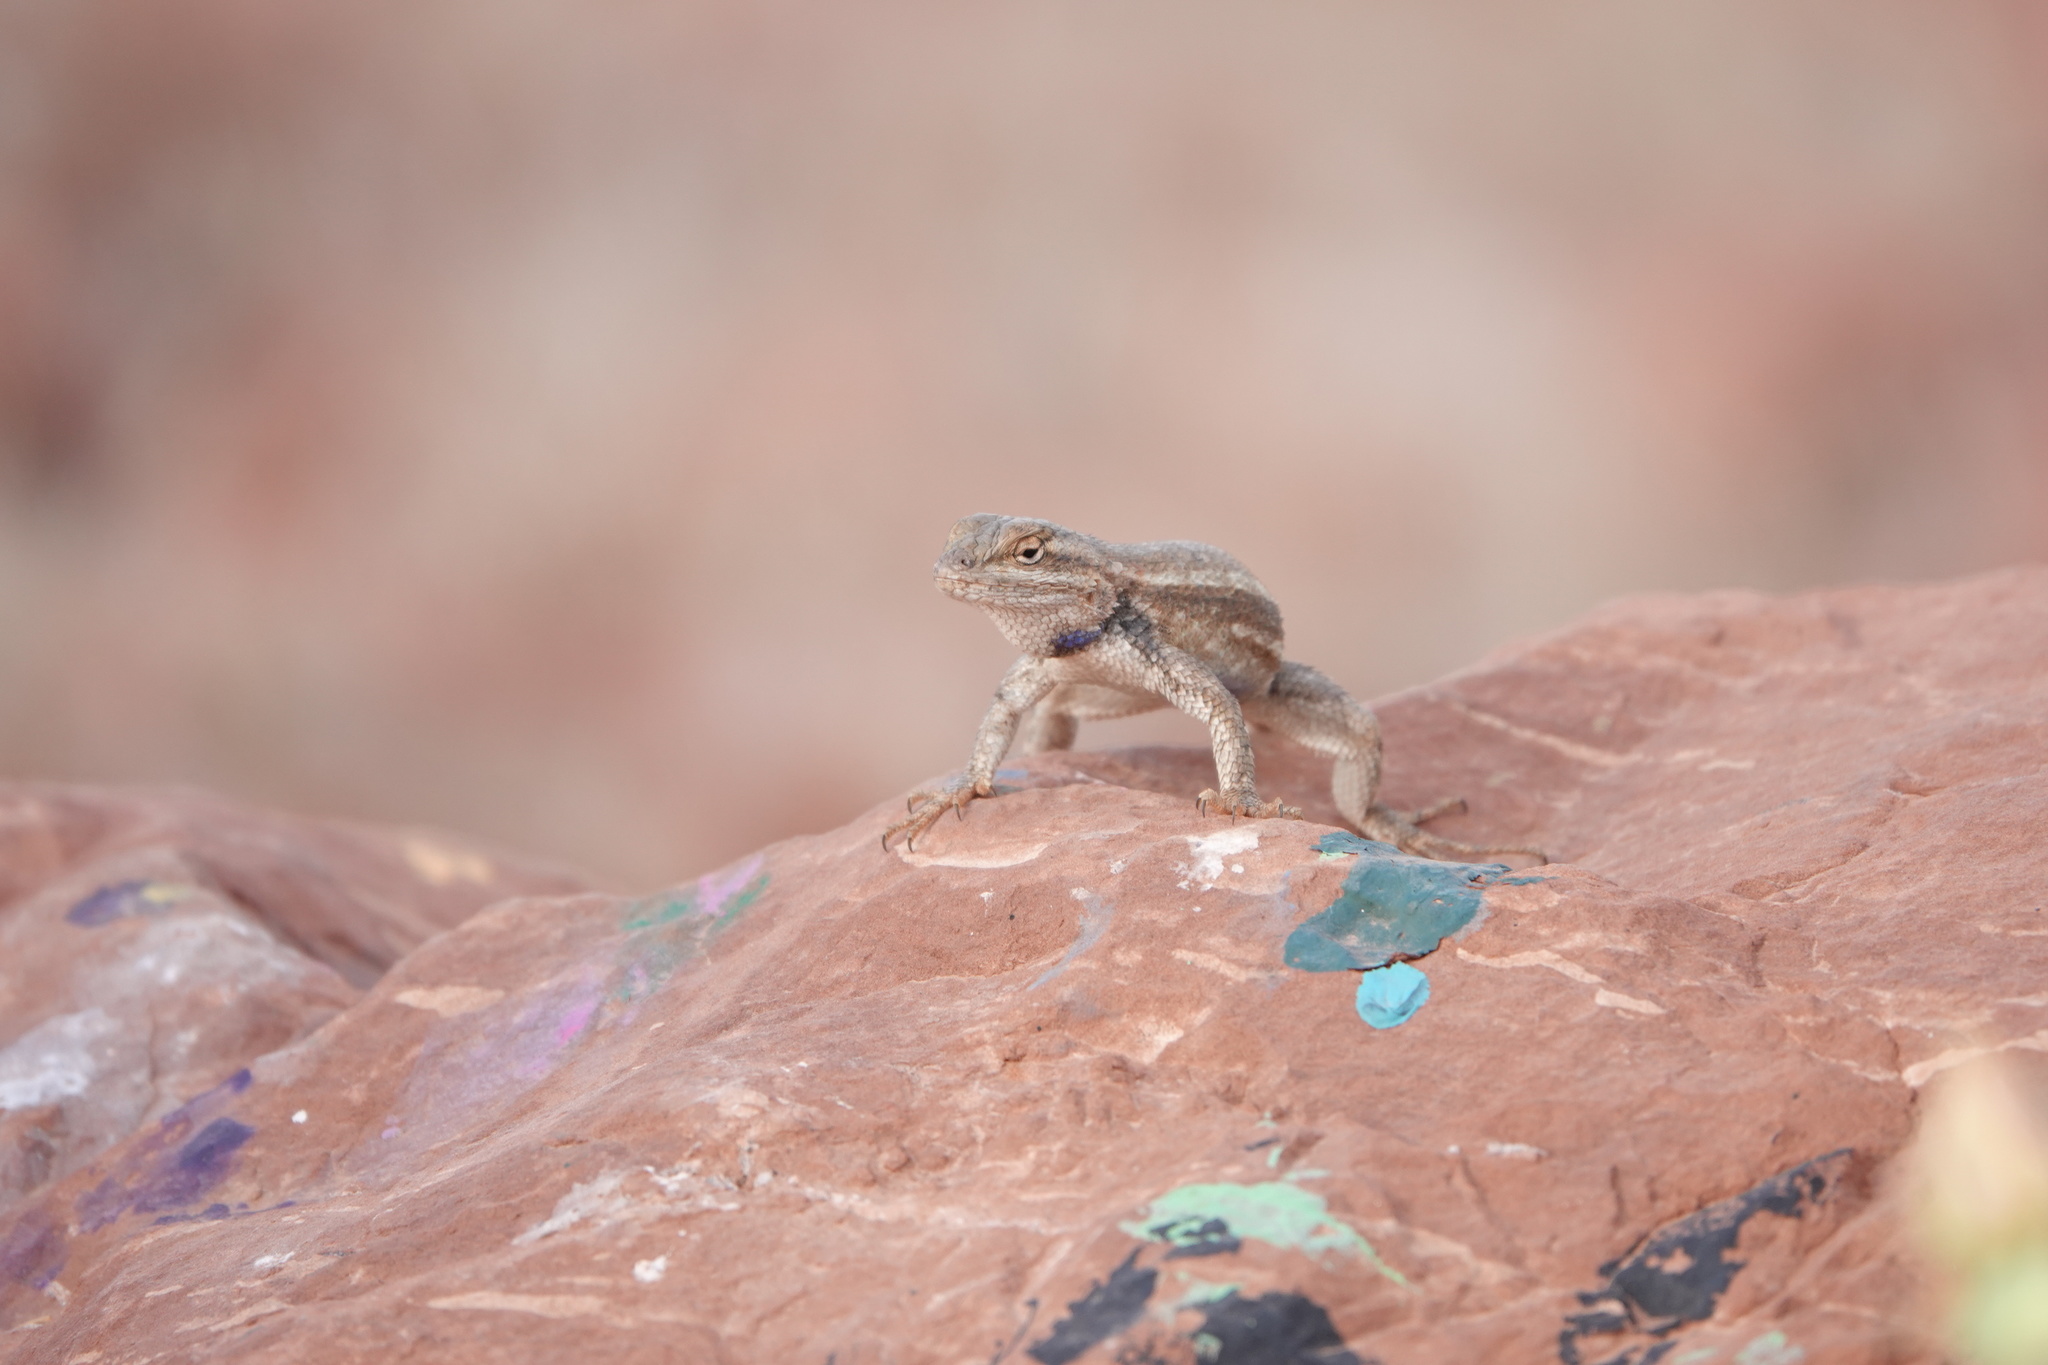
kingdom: Animalia
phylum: Chordata
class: Squamata
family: Phrynosomatidae
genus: Sceloporus
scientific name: Sceloporus tristichus
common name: Plateau fence lizard
